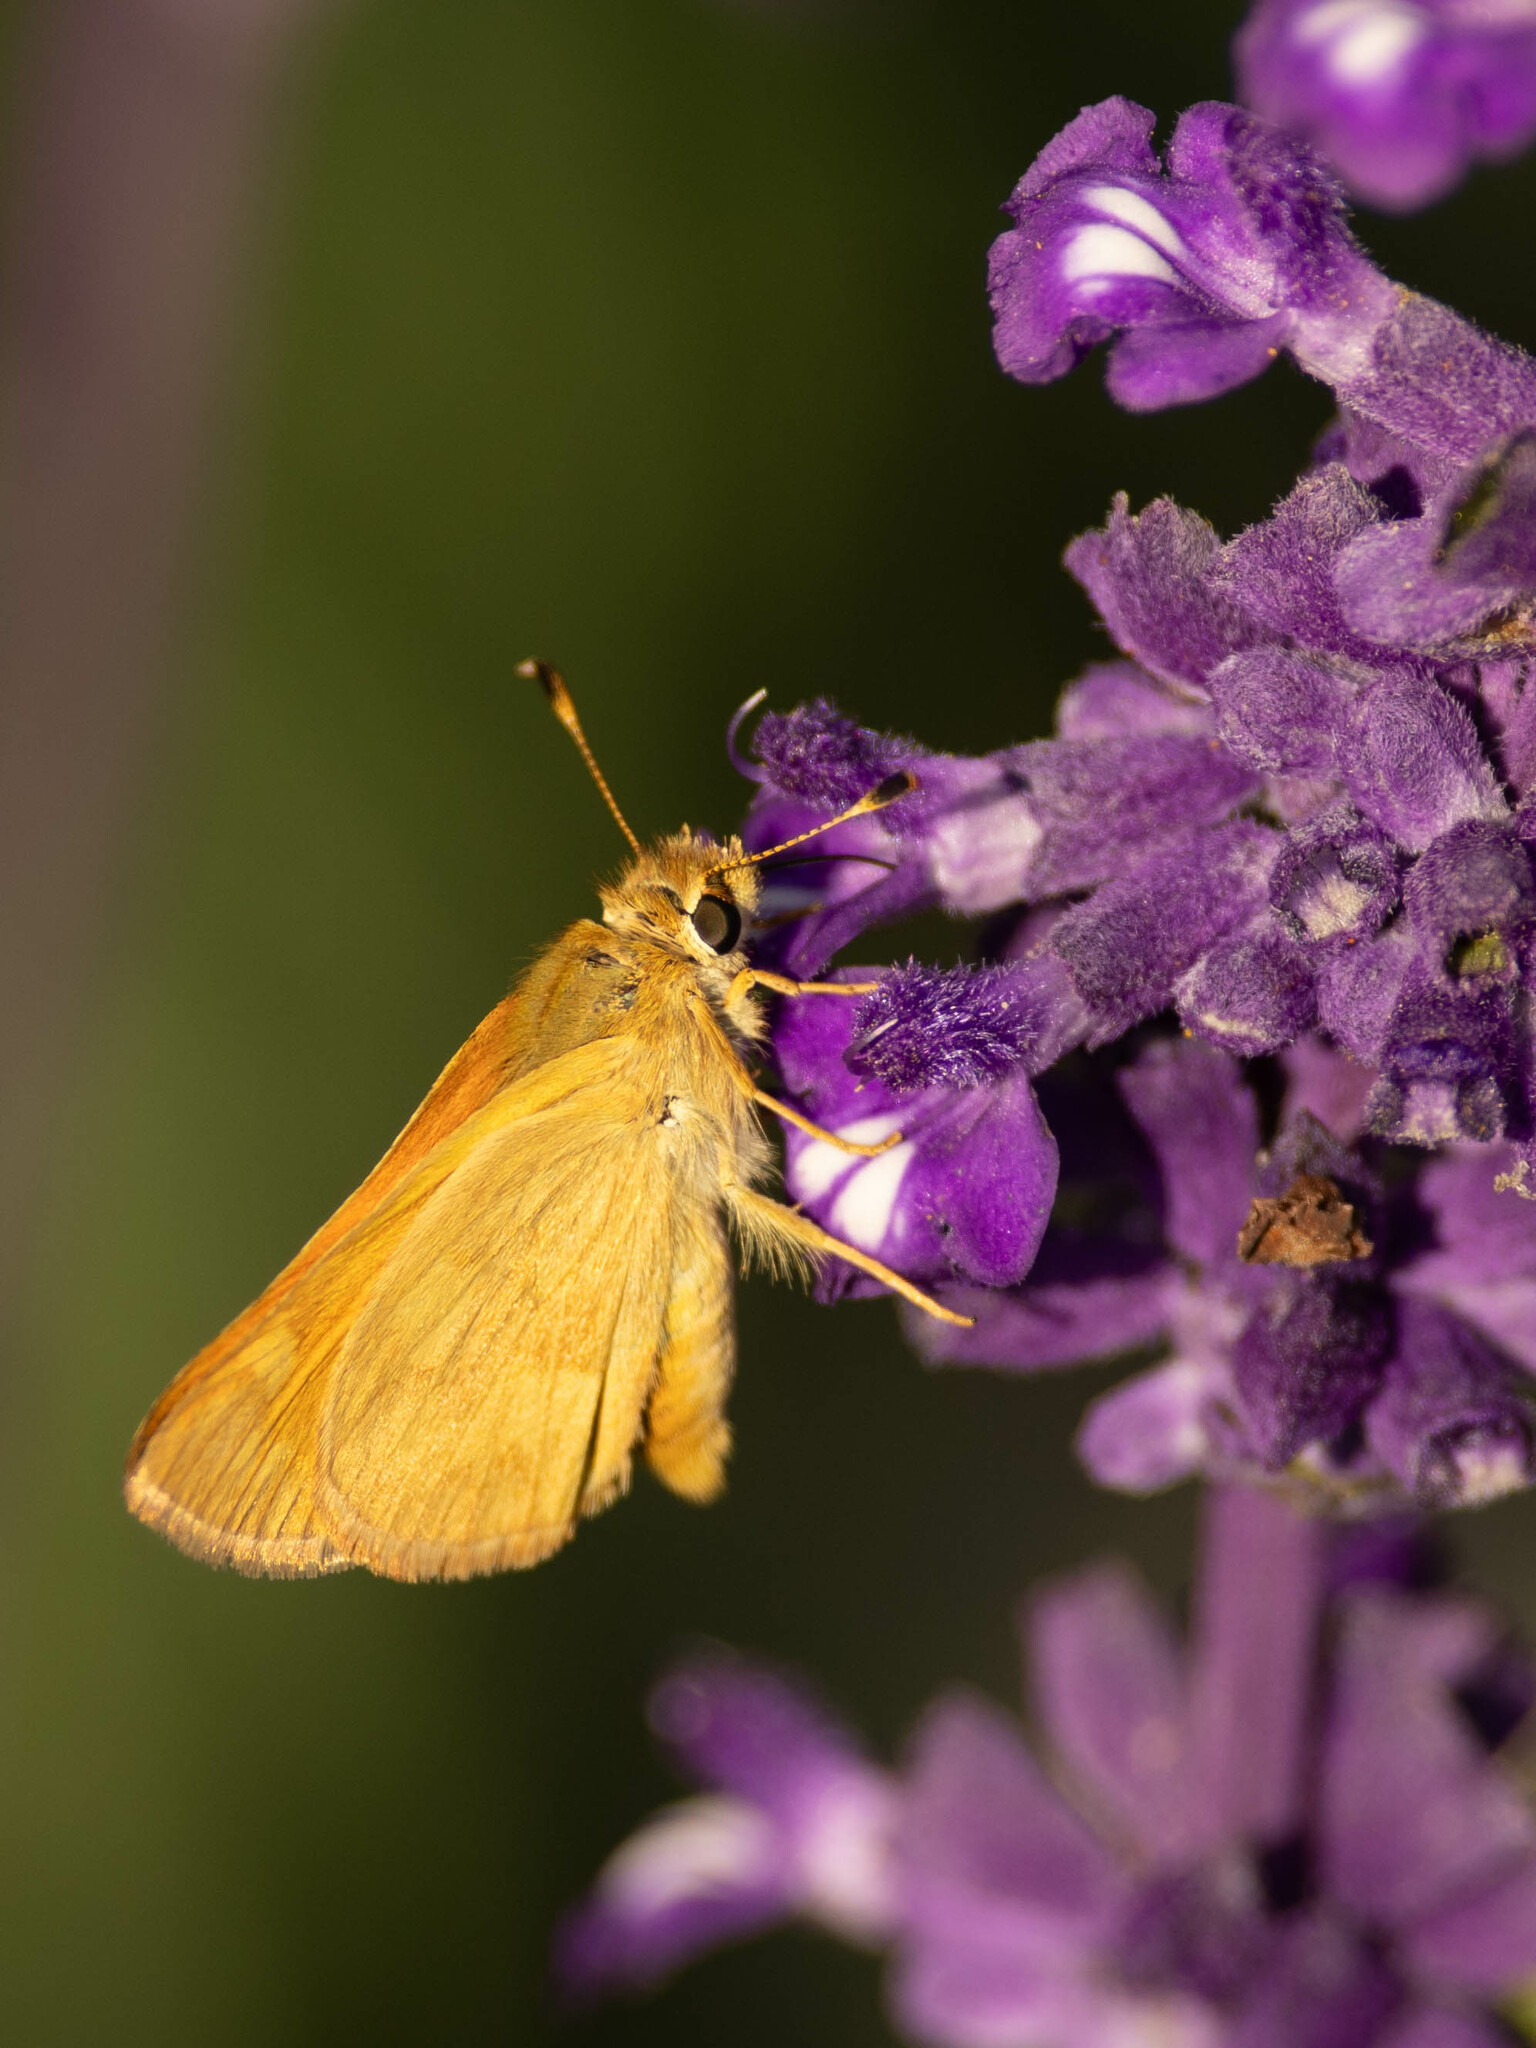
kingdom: Animalia
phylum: Arthropoda
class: Insecta
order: Lepidoptera
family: Hesperiidae
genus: Ochlodes
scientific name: Ochlodes sylvanoides
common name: Woodland skipper
